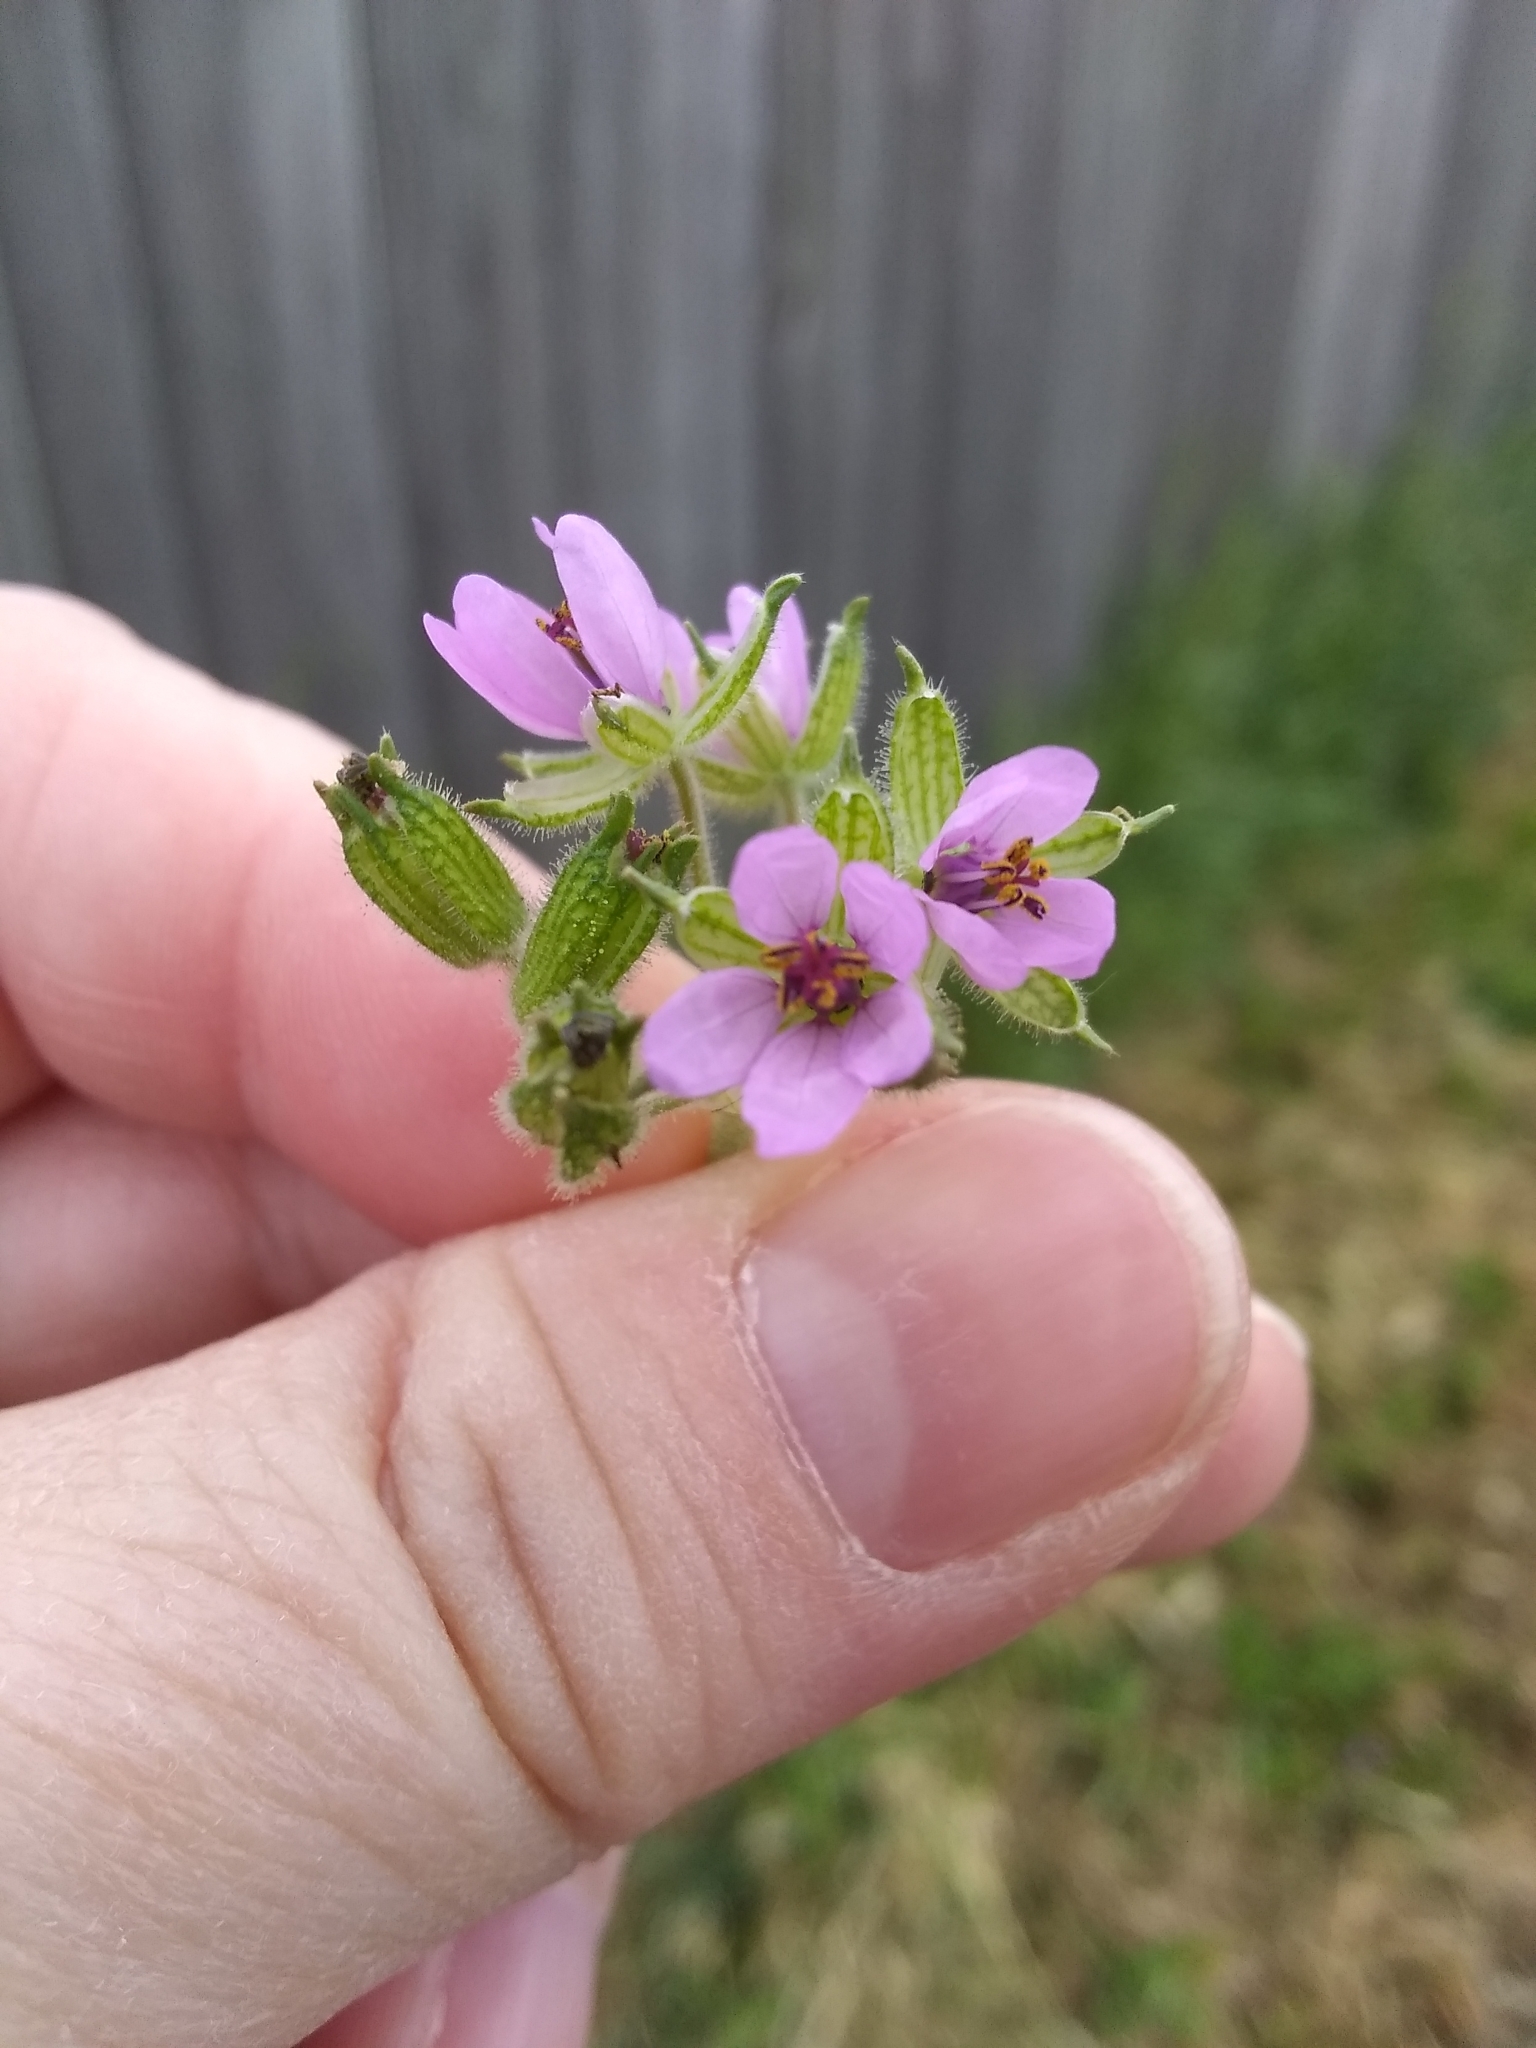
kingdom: Plantae
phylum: Tracheophyta
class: Magnoliopsida
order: Geraniales
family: Geraniaceae
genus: Erodium
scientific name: Erodium moschatum
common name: Musk stork's-bill
